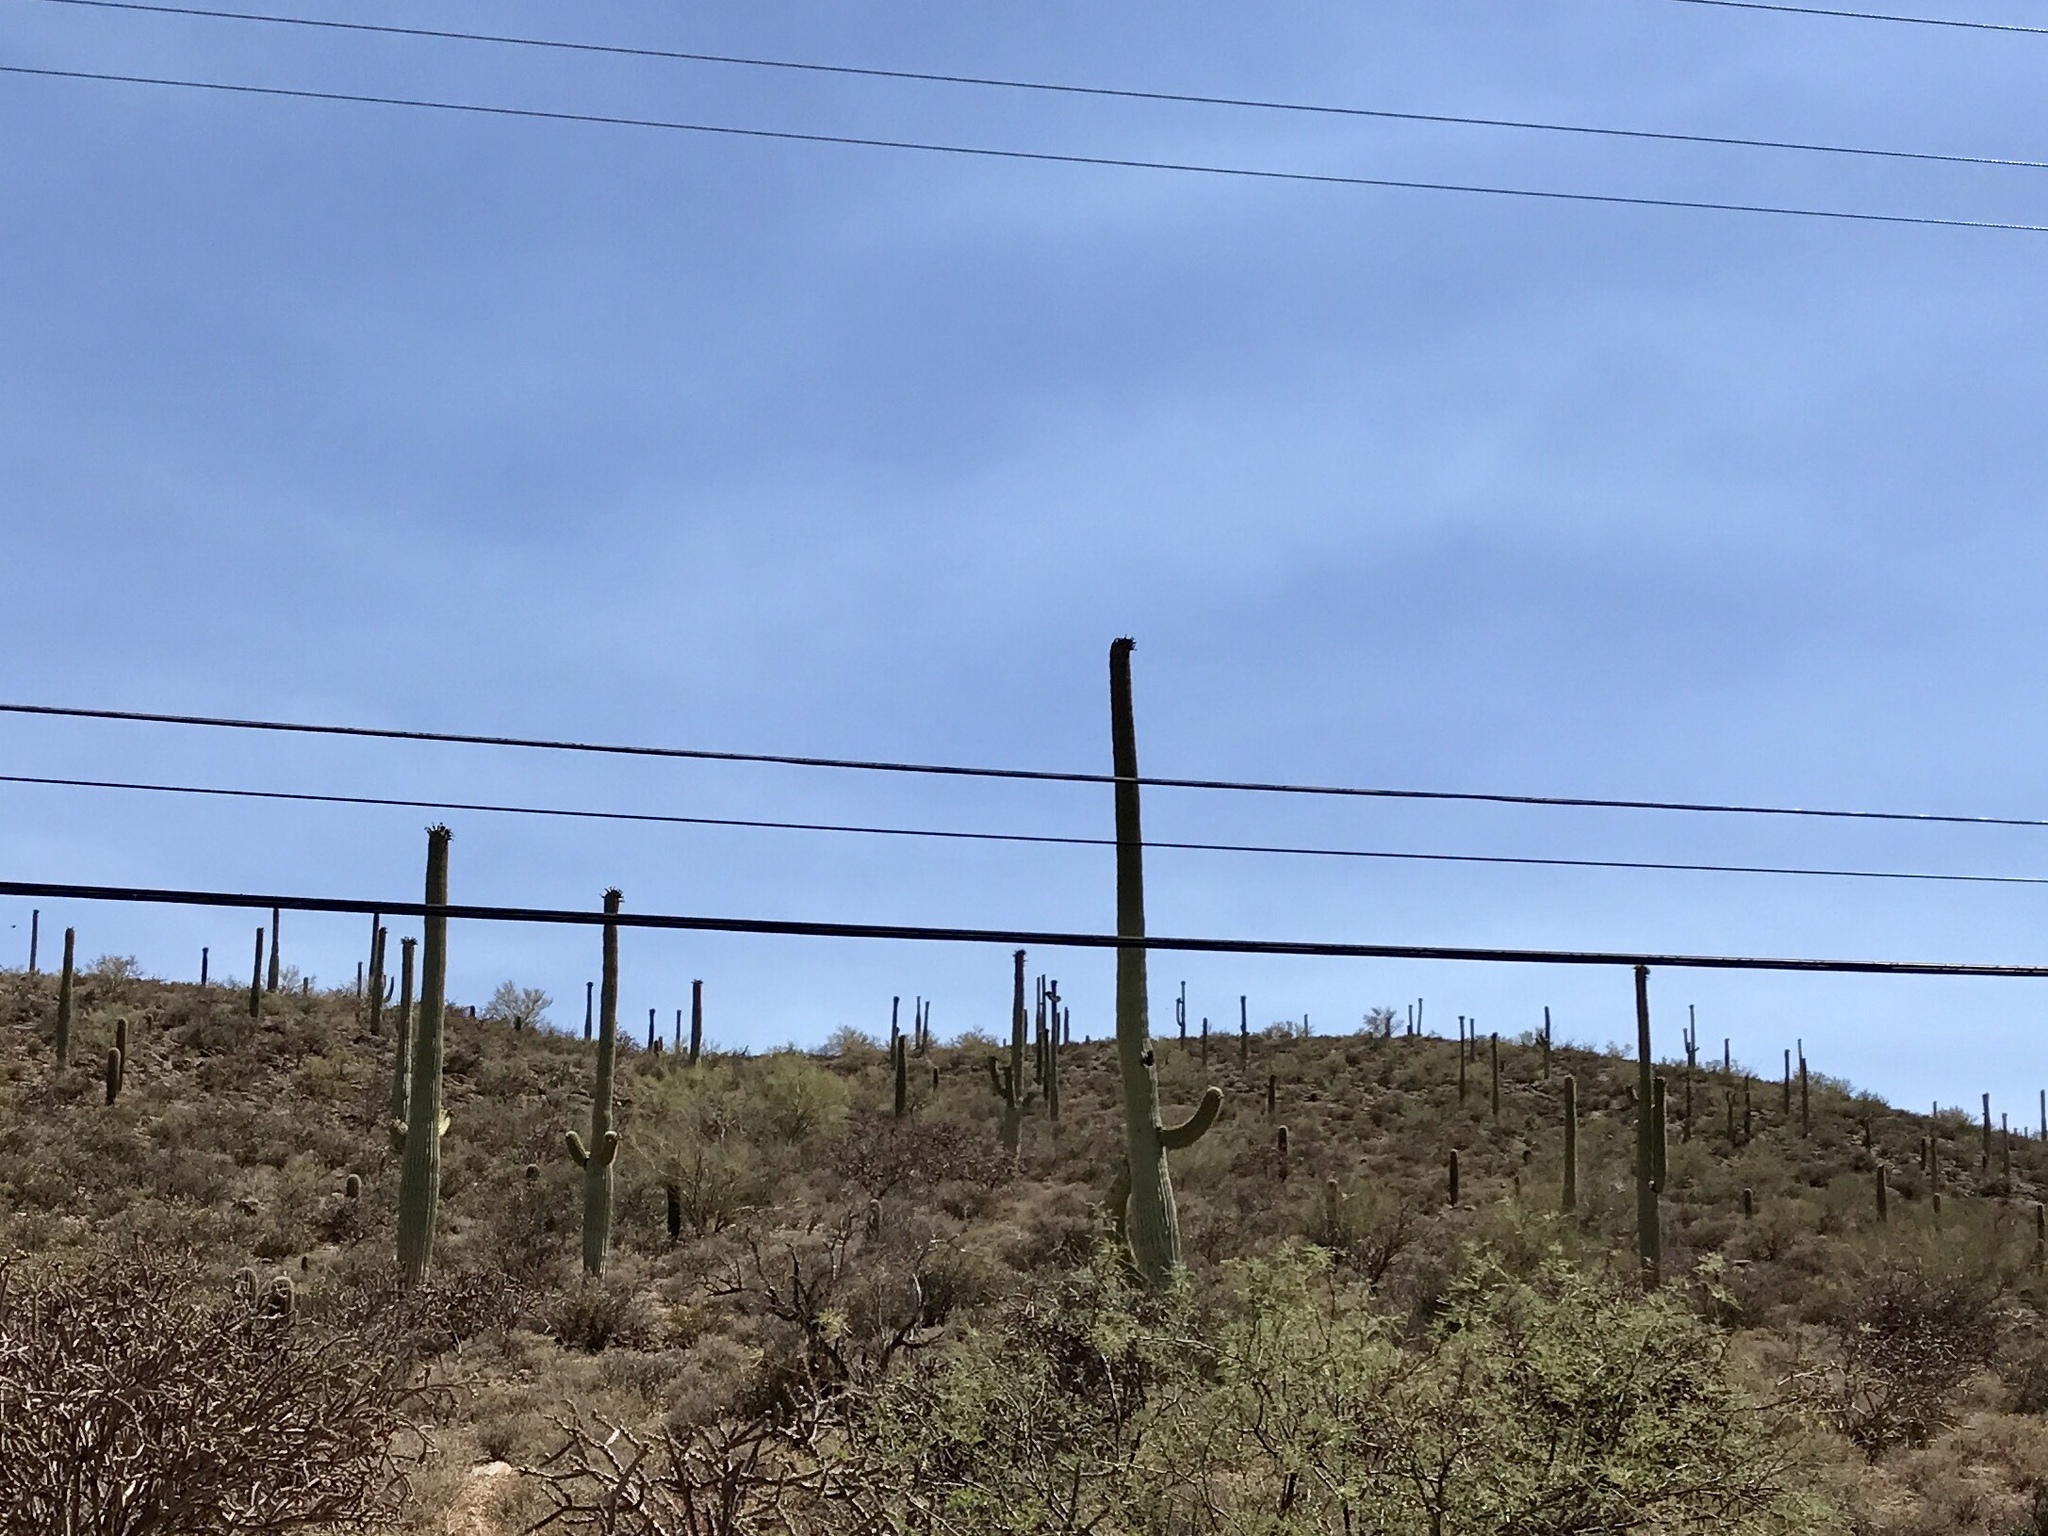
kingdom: Plantae
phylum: Tracheophyta
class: Magnoliopsida
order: Caryophyllales
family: Cactaceae
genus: Carnegiea
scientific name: Carnegiea gigantea
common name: Saguaro
